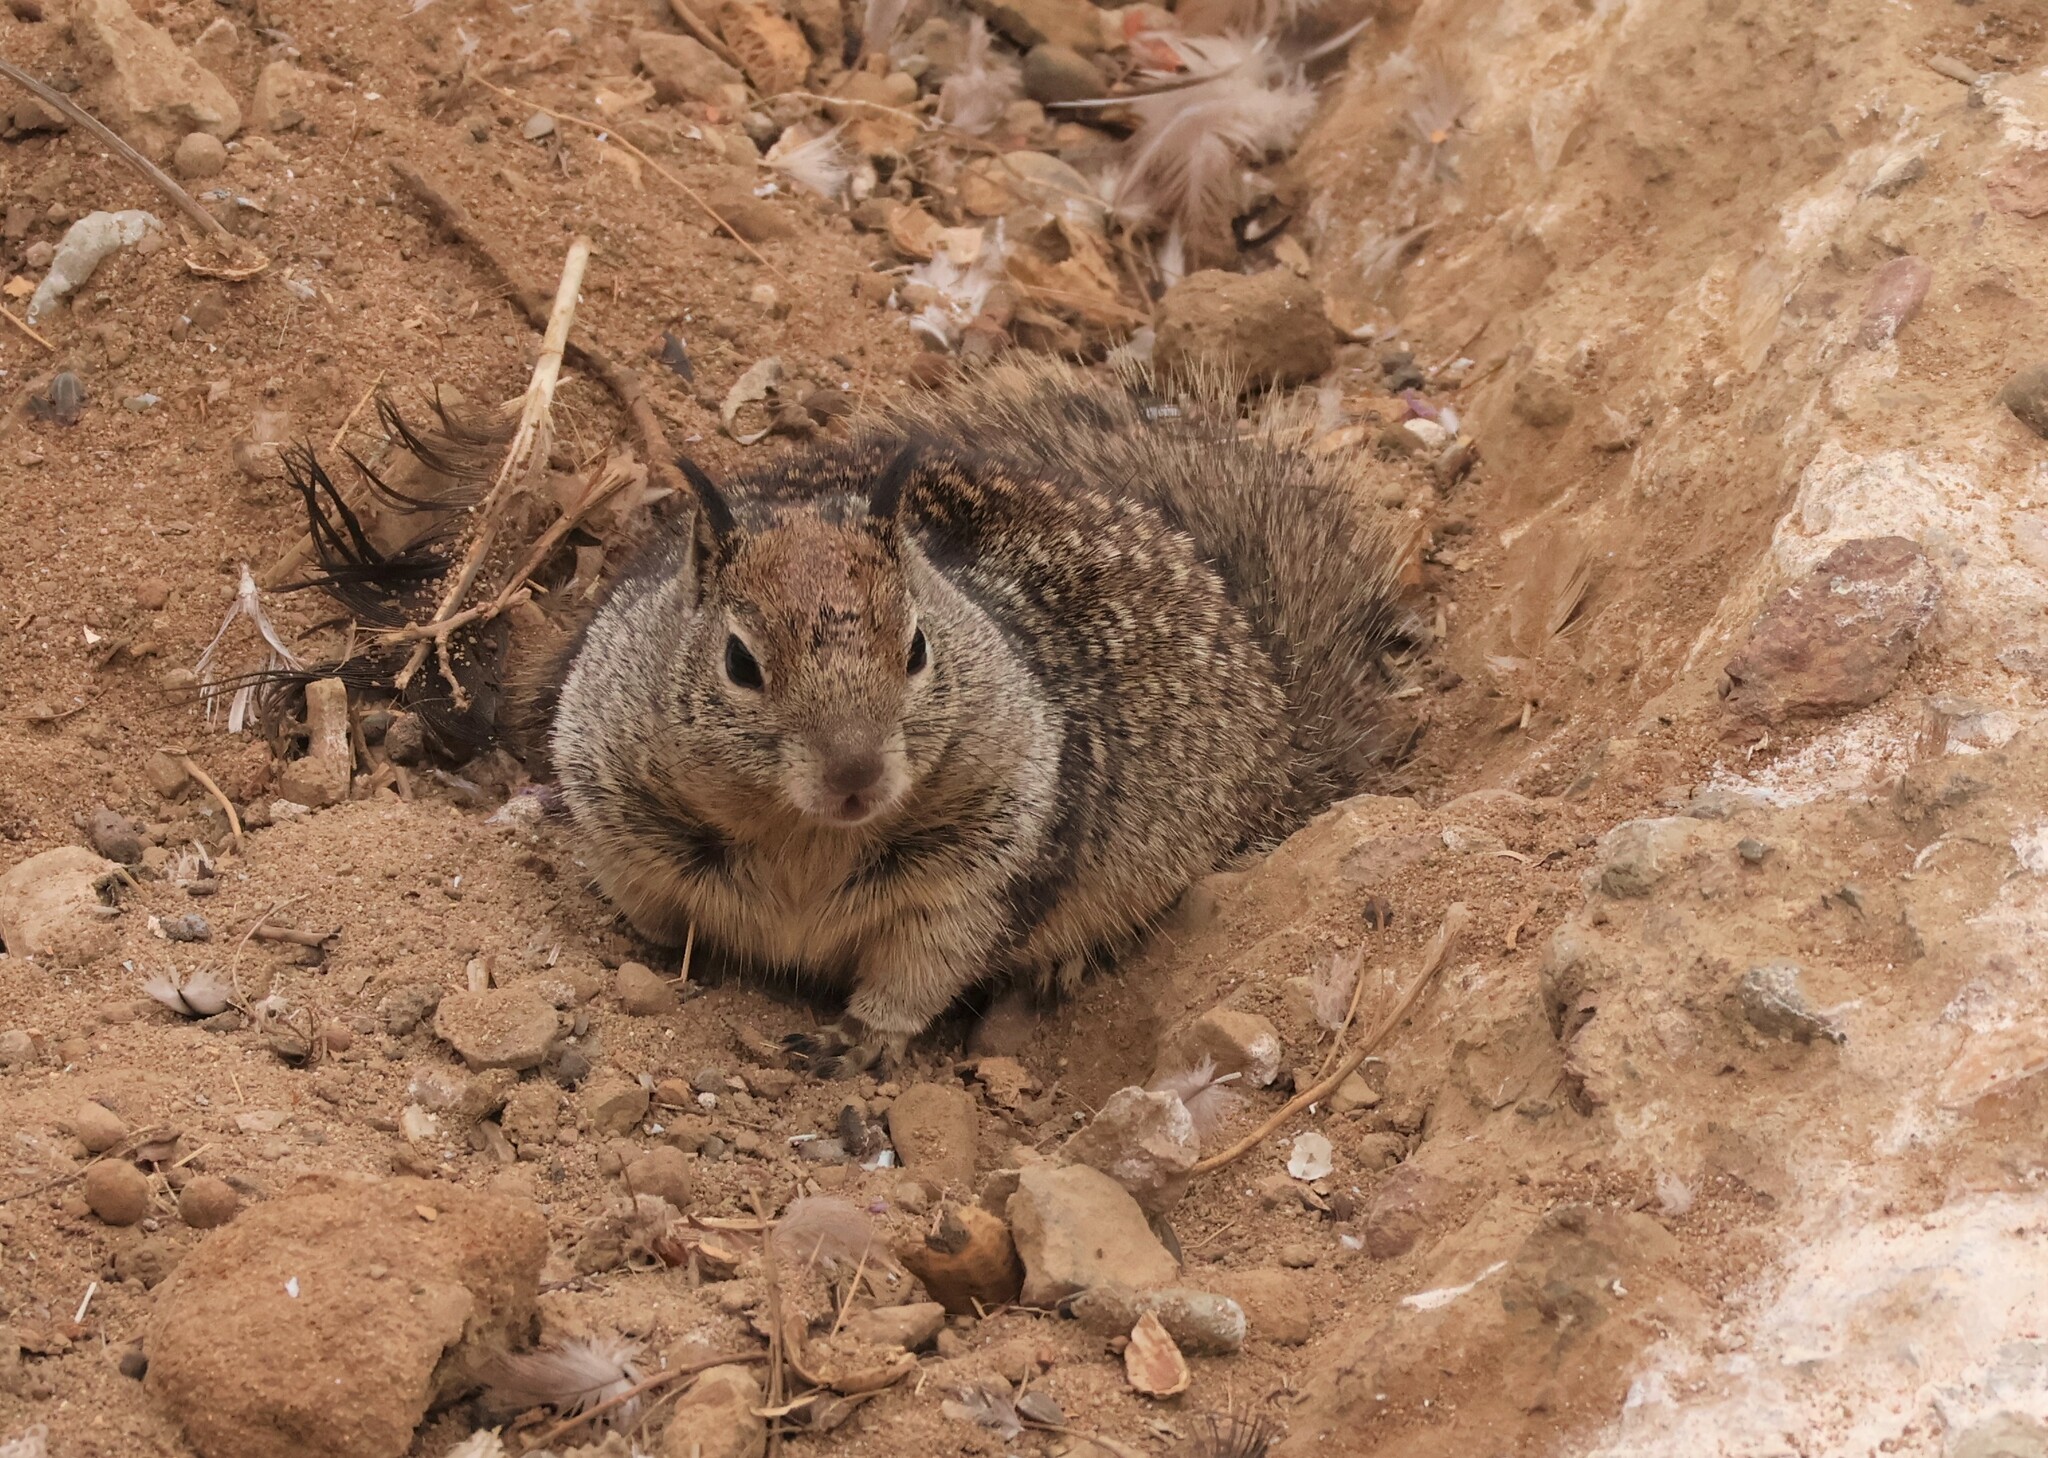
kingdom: Animalia
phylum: Chordata
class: Mammalia
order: Rodentia
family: Sciuridae
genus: Otospermophilus
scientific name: Otospermophilus beecheyi
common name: California ground squirrel
